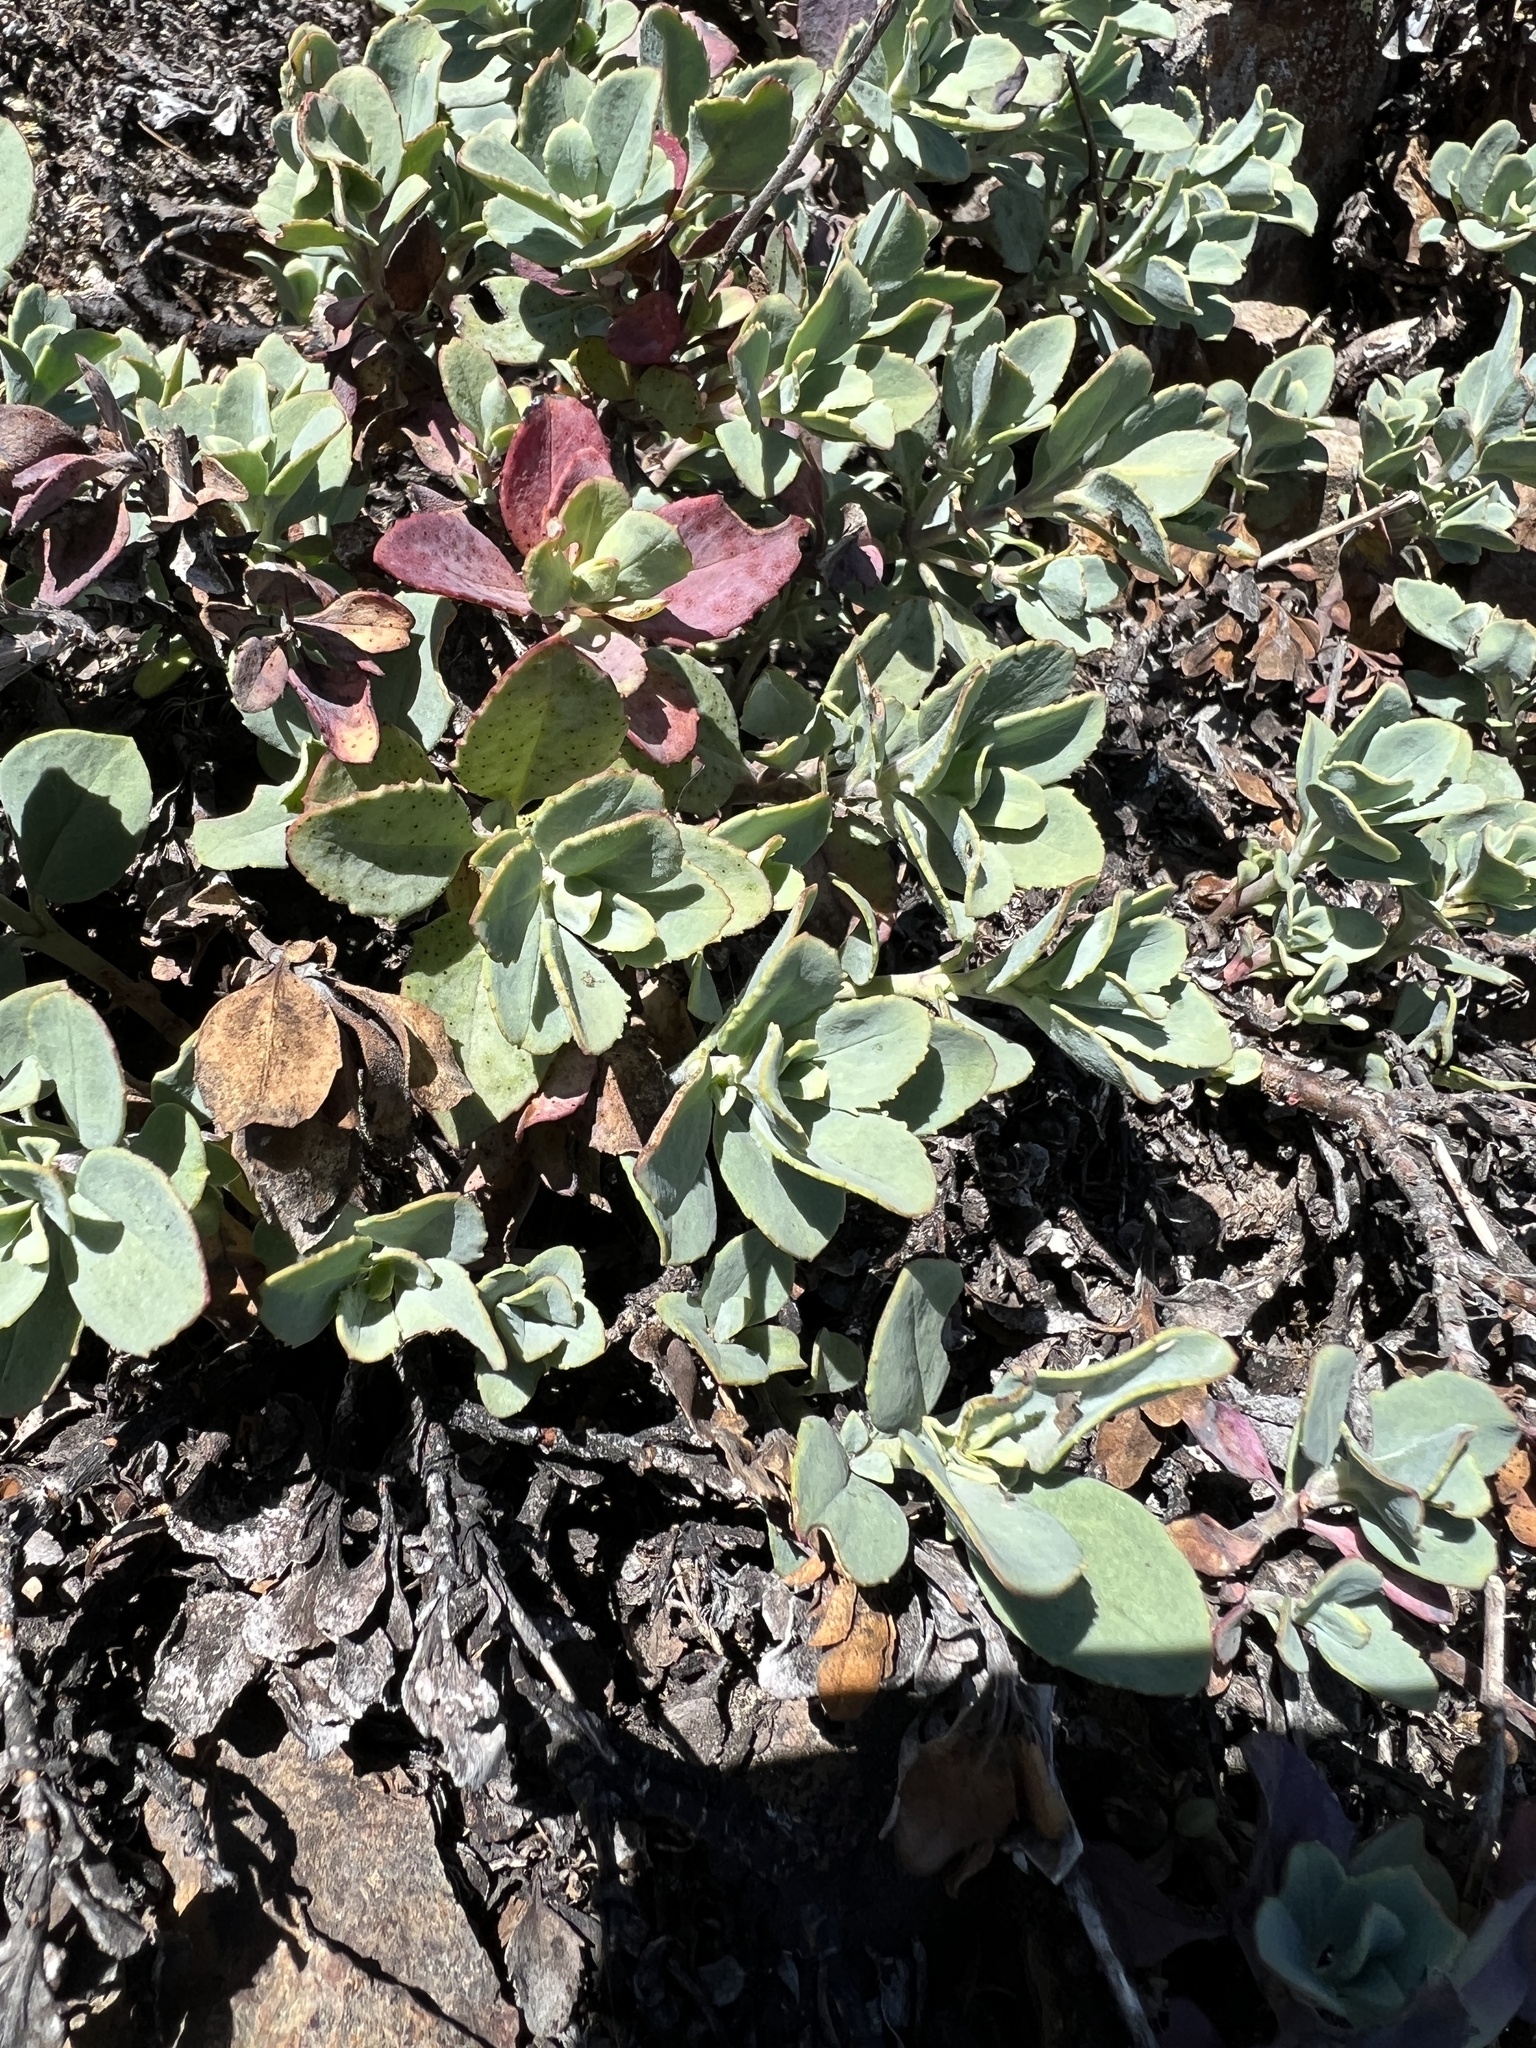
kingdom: Plantae
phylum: Tracheophyta
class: Magnoliopsida
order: Lamiales
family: Plantaginaceae
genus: Penstemon
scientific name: Penstemon rupicola
